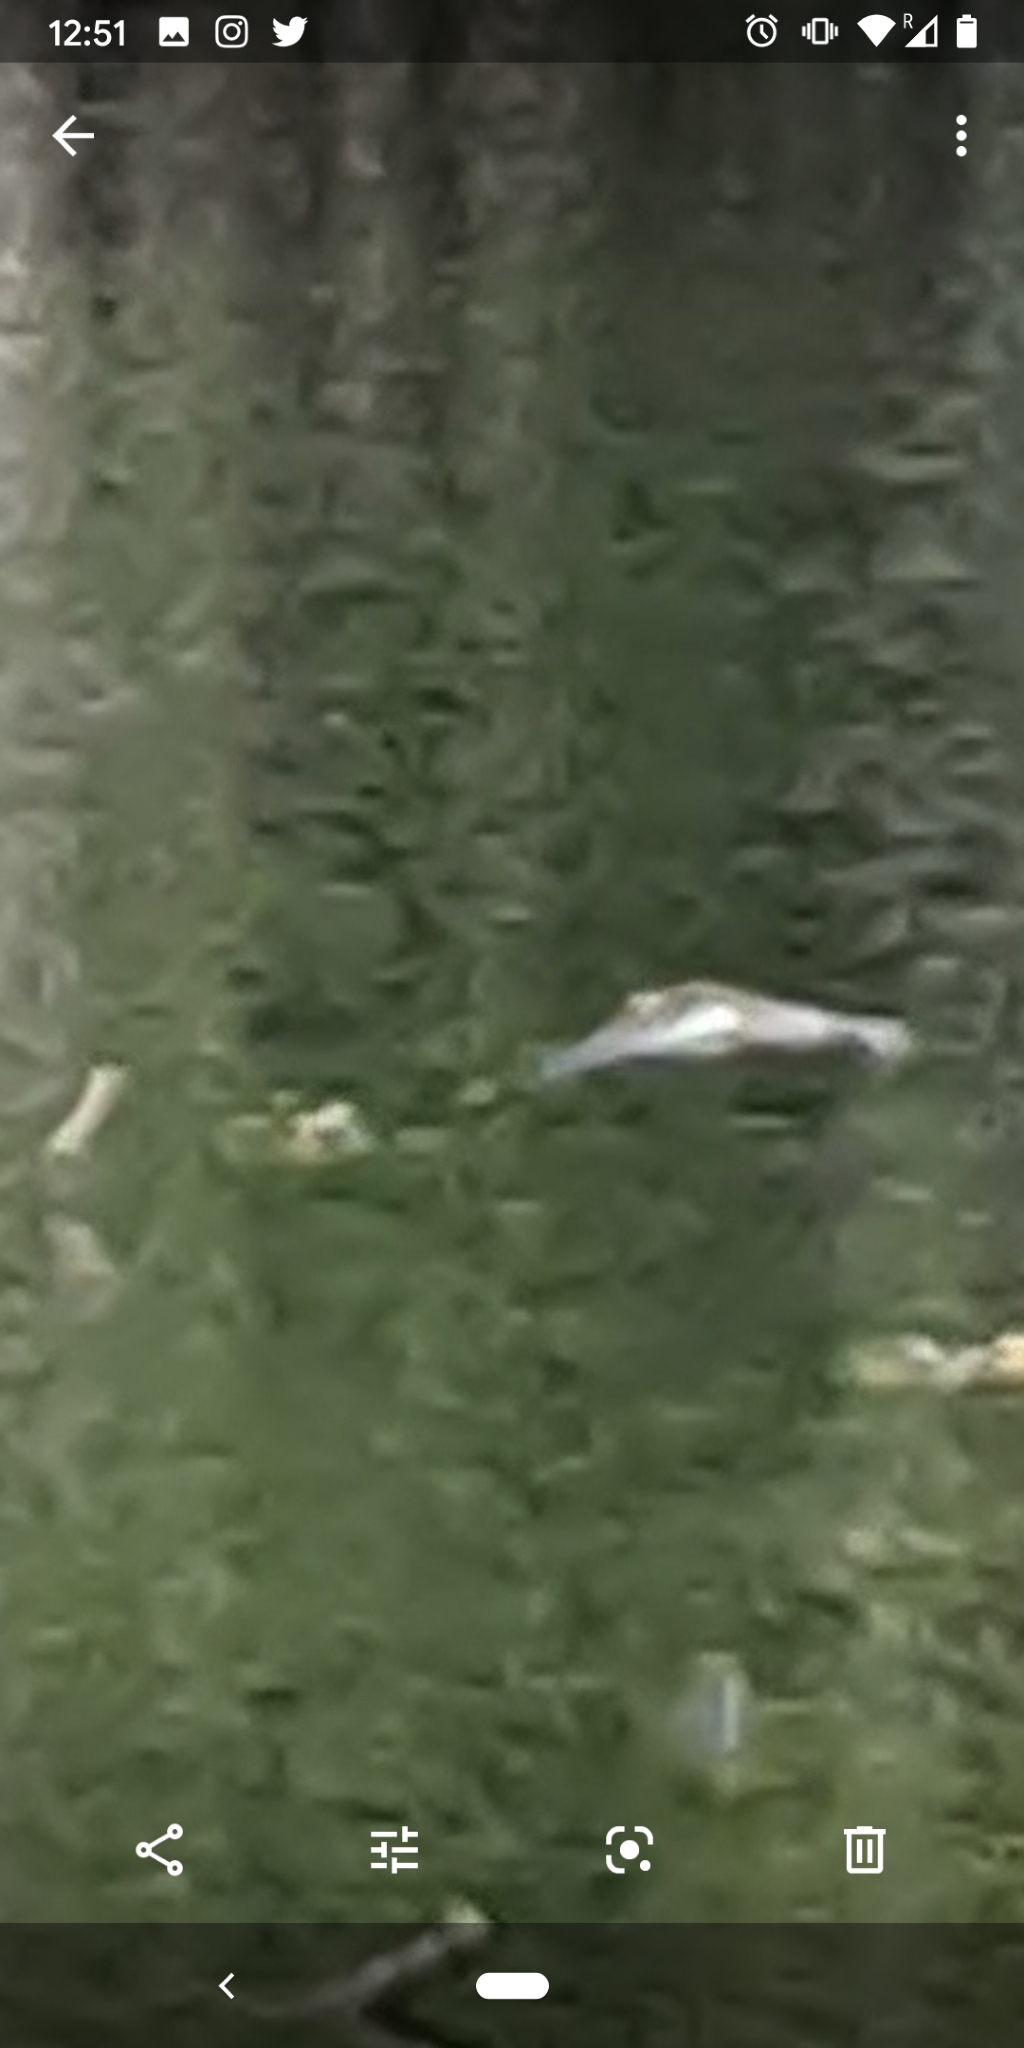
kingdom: Animalia
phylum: Chordata
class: Aves
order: Charadriiformes
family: Scolopacidae
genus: Actitis
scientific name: Actitis macularius
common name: Spotted sandpiper
